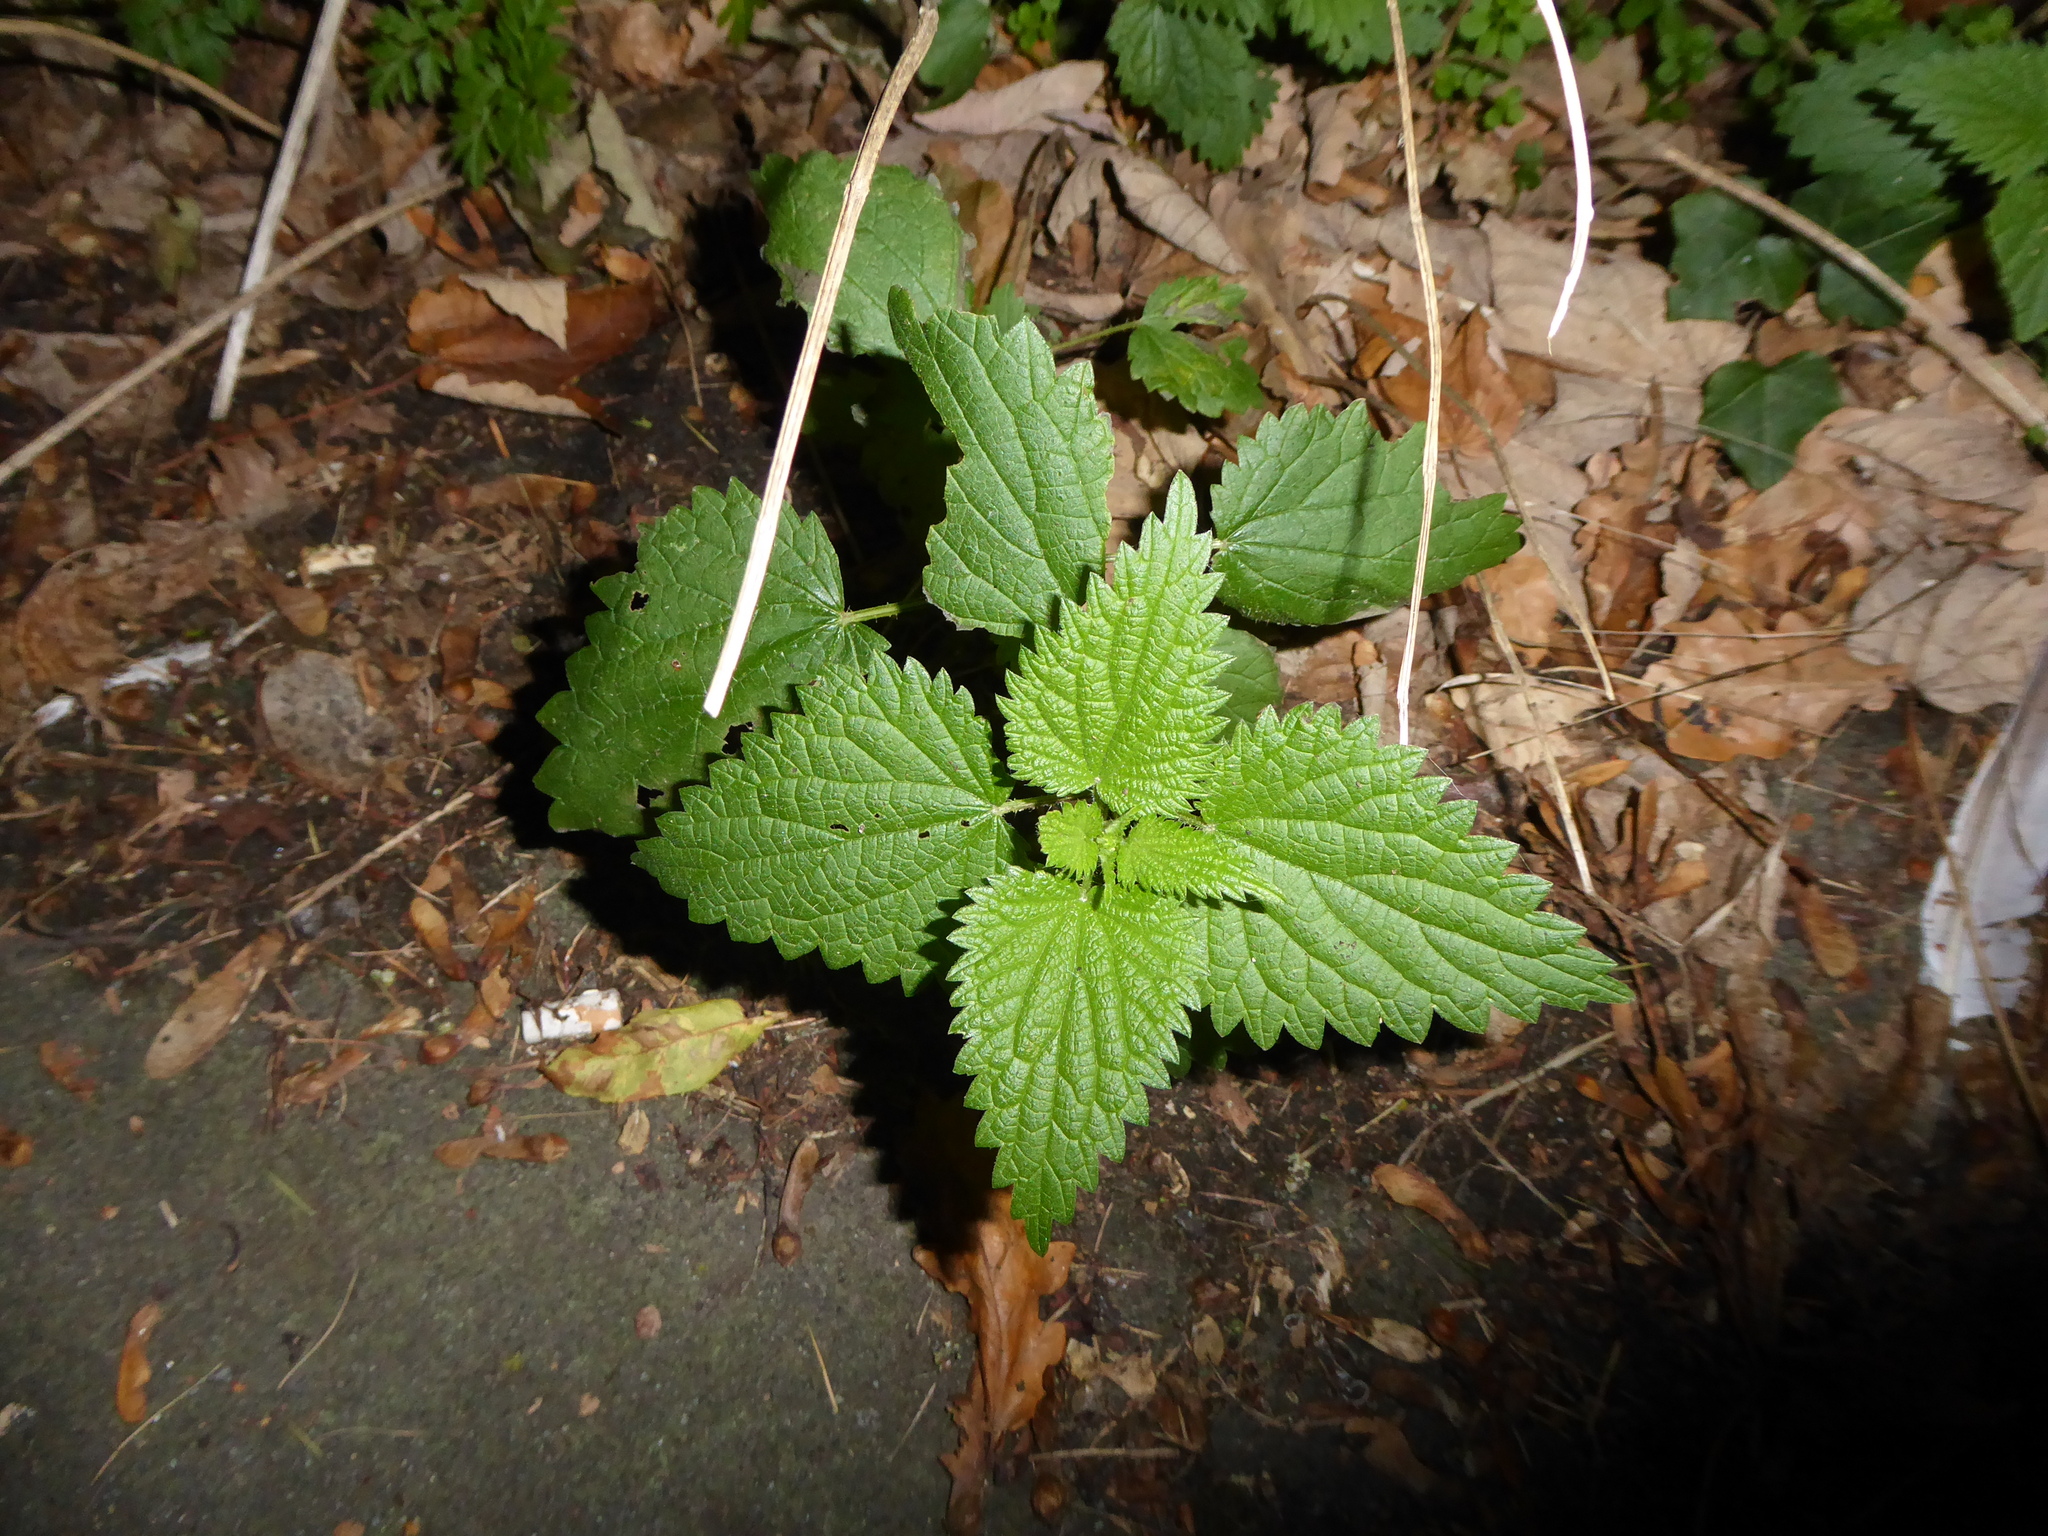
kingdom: Plantae
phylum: Tracheophyta
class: Magnoliopsida
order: Rosales
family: Urticaceae
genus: Urtica
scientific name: Urtica dioica
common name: Common nettle
